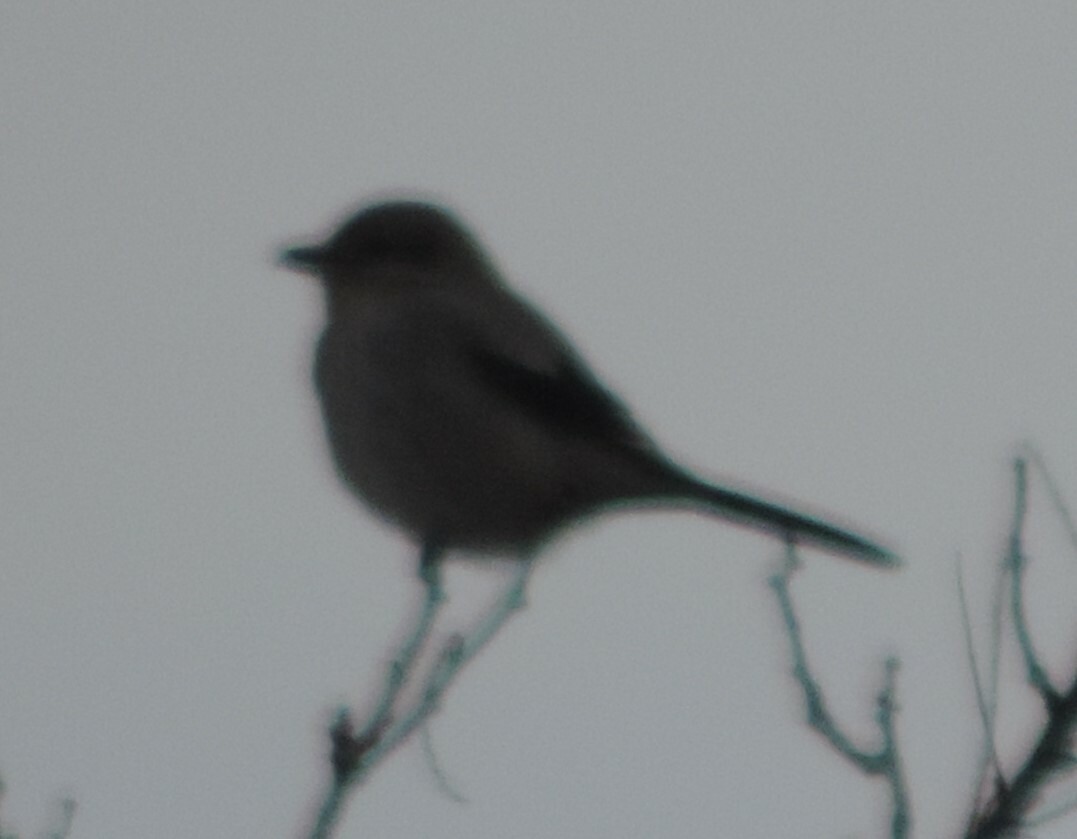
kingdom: Animalia
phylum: Chordata
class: Aves
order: Passeriformes
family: Laniidae
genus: Lanius
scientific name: Lanius borealis
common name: Northern shrike
